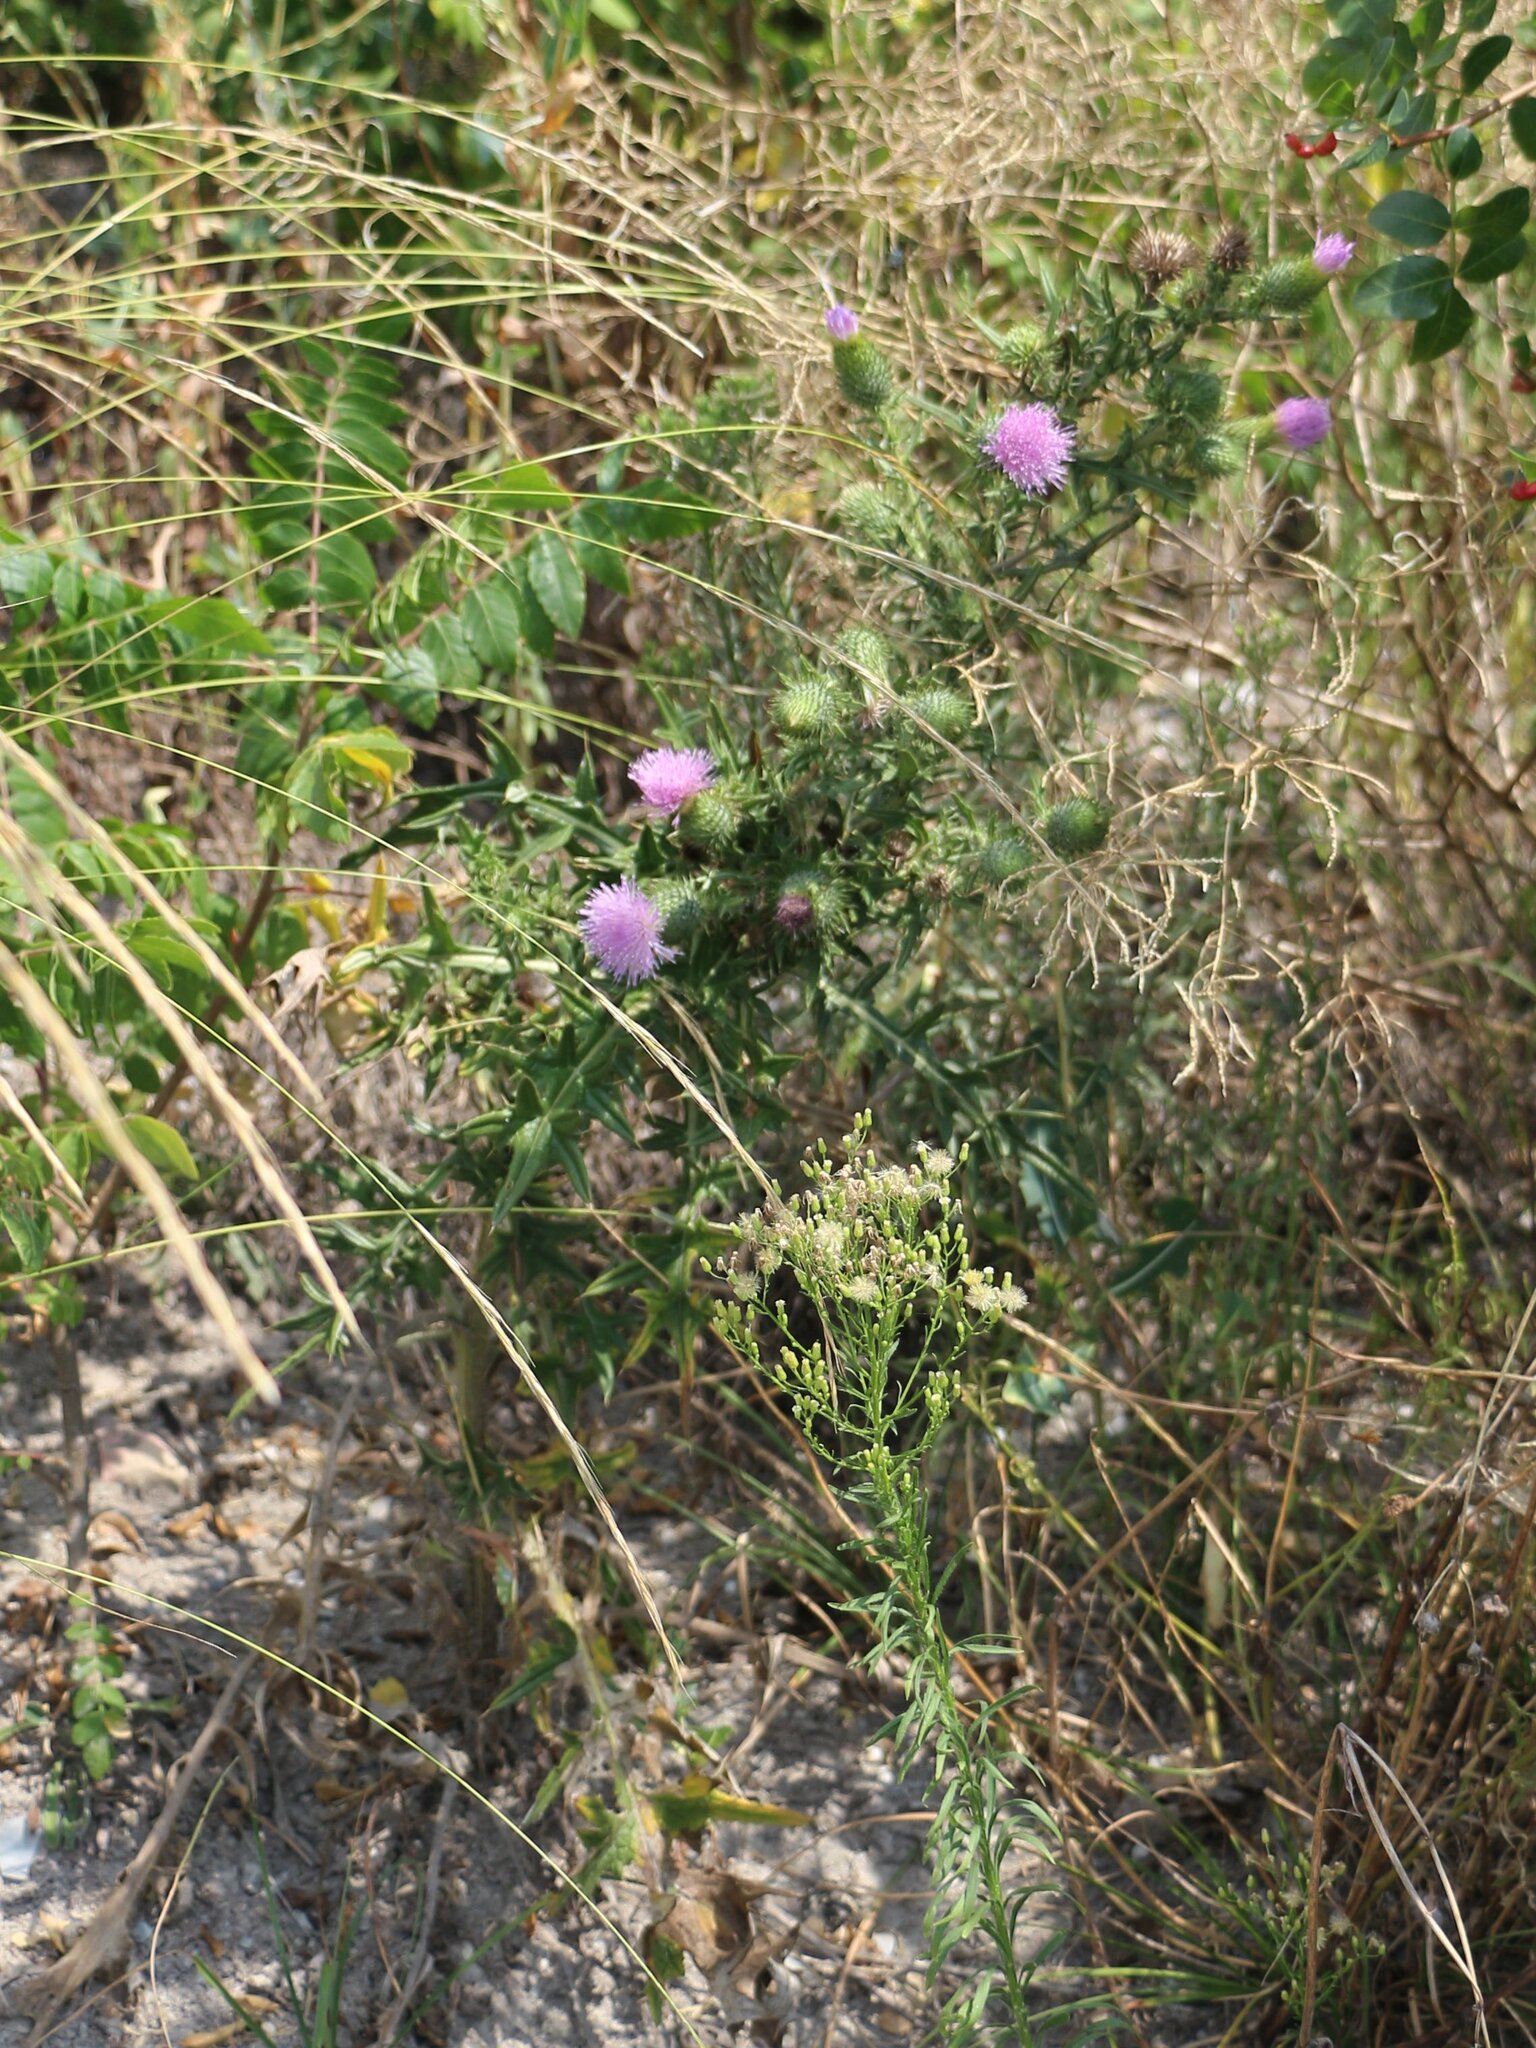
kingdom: Plantae
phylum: Tracheophyta
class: Magnoliopsida
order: Asterales
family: Asteraceae
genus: Cirsium
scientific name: Cirsium vulgare
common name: Bull thistle
